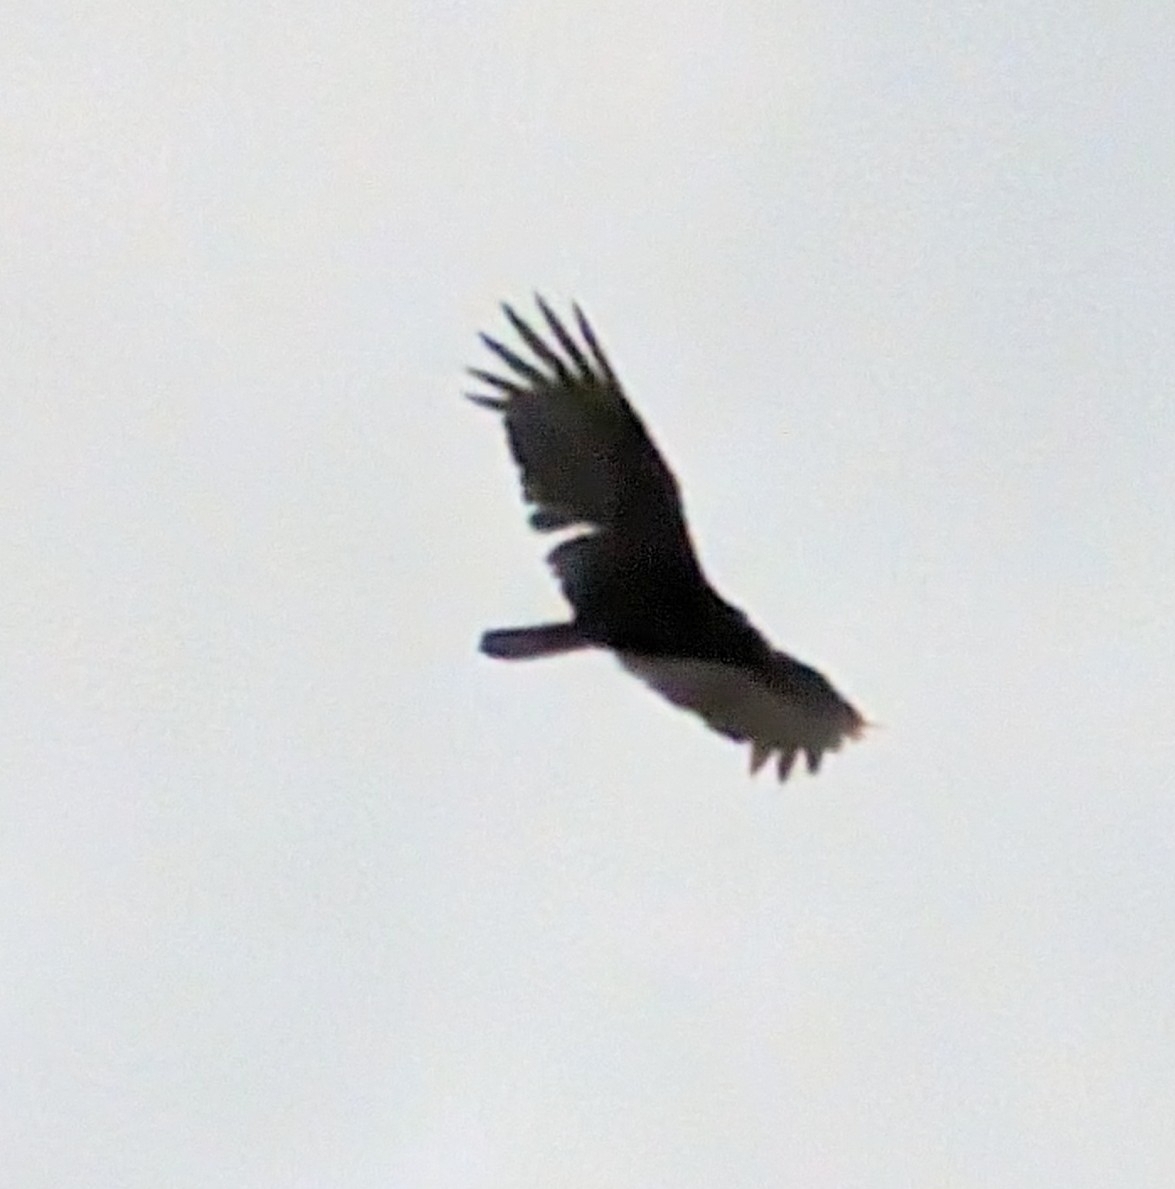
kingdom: Animalia
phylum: Chordata
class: Aves
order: Accipitriformes
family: Cathartidae
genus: Cathartes
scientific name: Cathartes aura
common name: Turkey vulture
